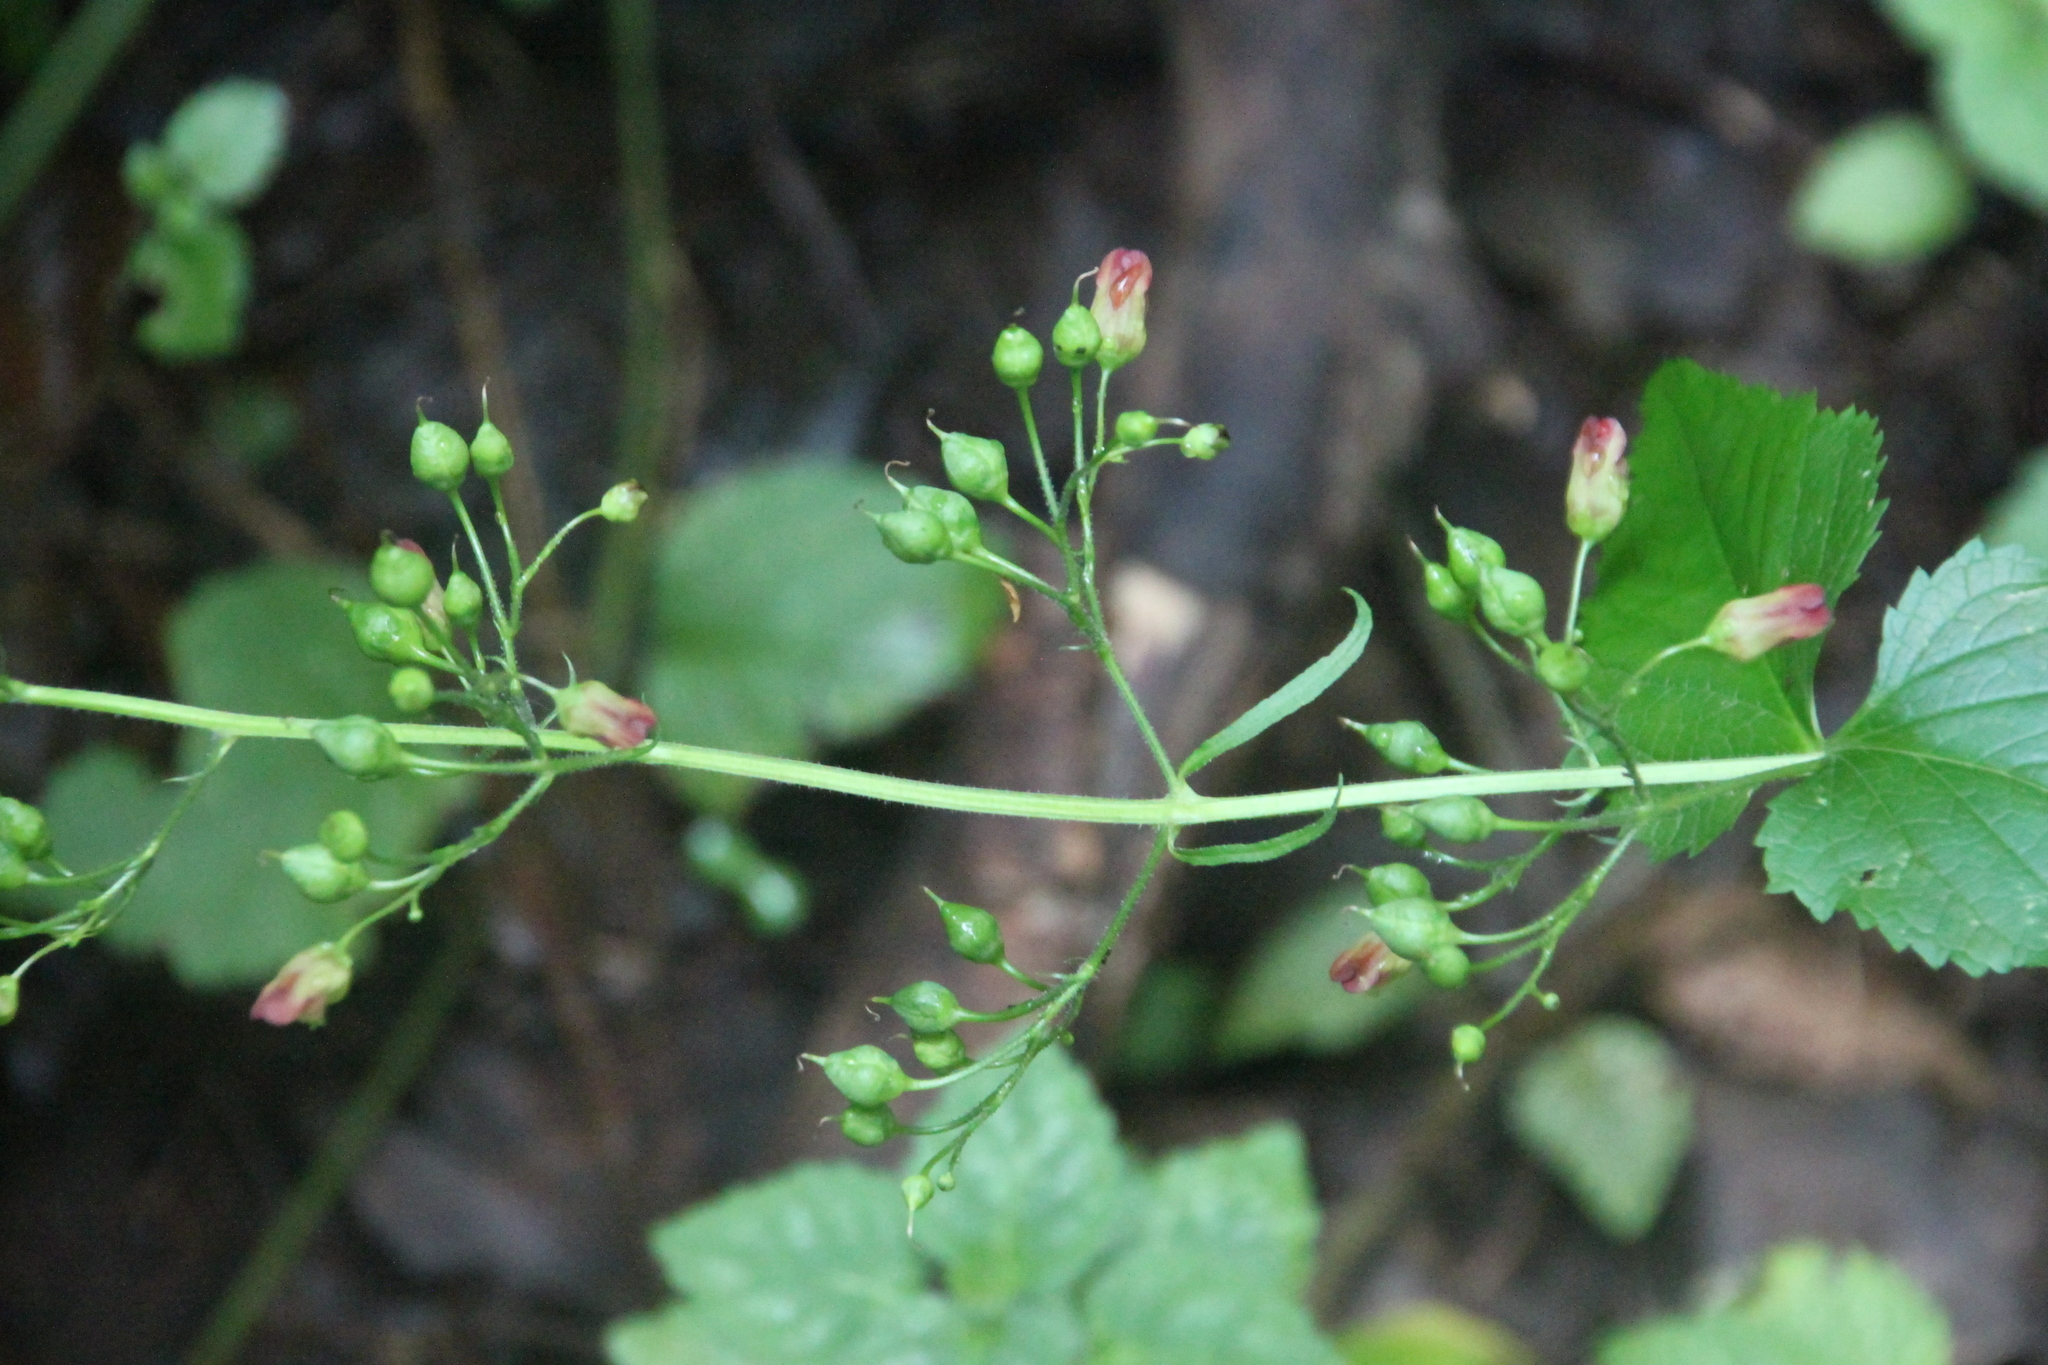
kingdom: Plantae
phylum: Tracheophyta
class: Magnoliopsida
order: Lamiales
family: Scrophulariaceae
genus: Scrophularia
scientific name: Scrophularia nodosa
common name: Common figwort
